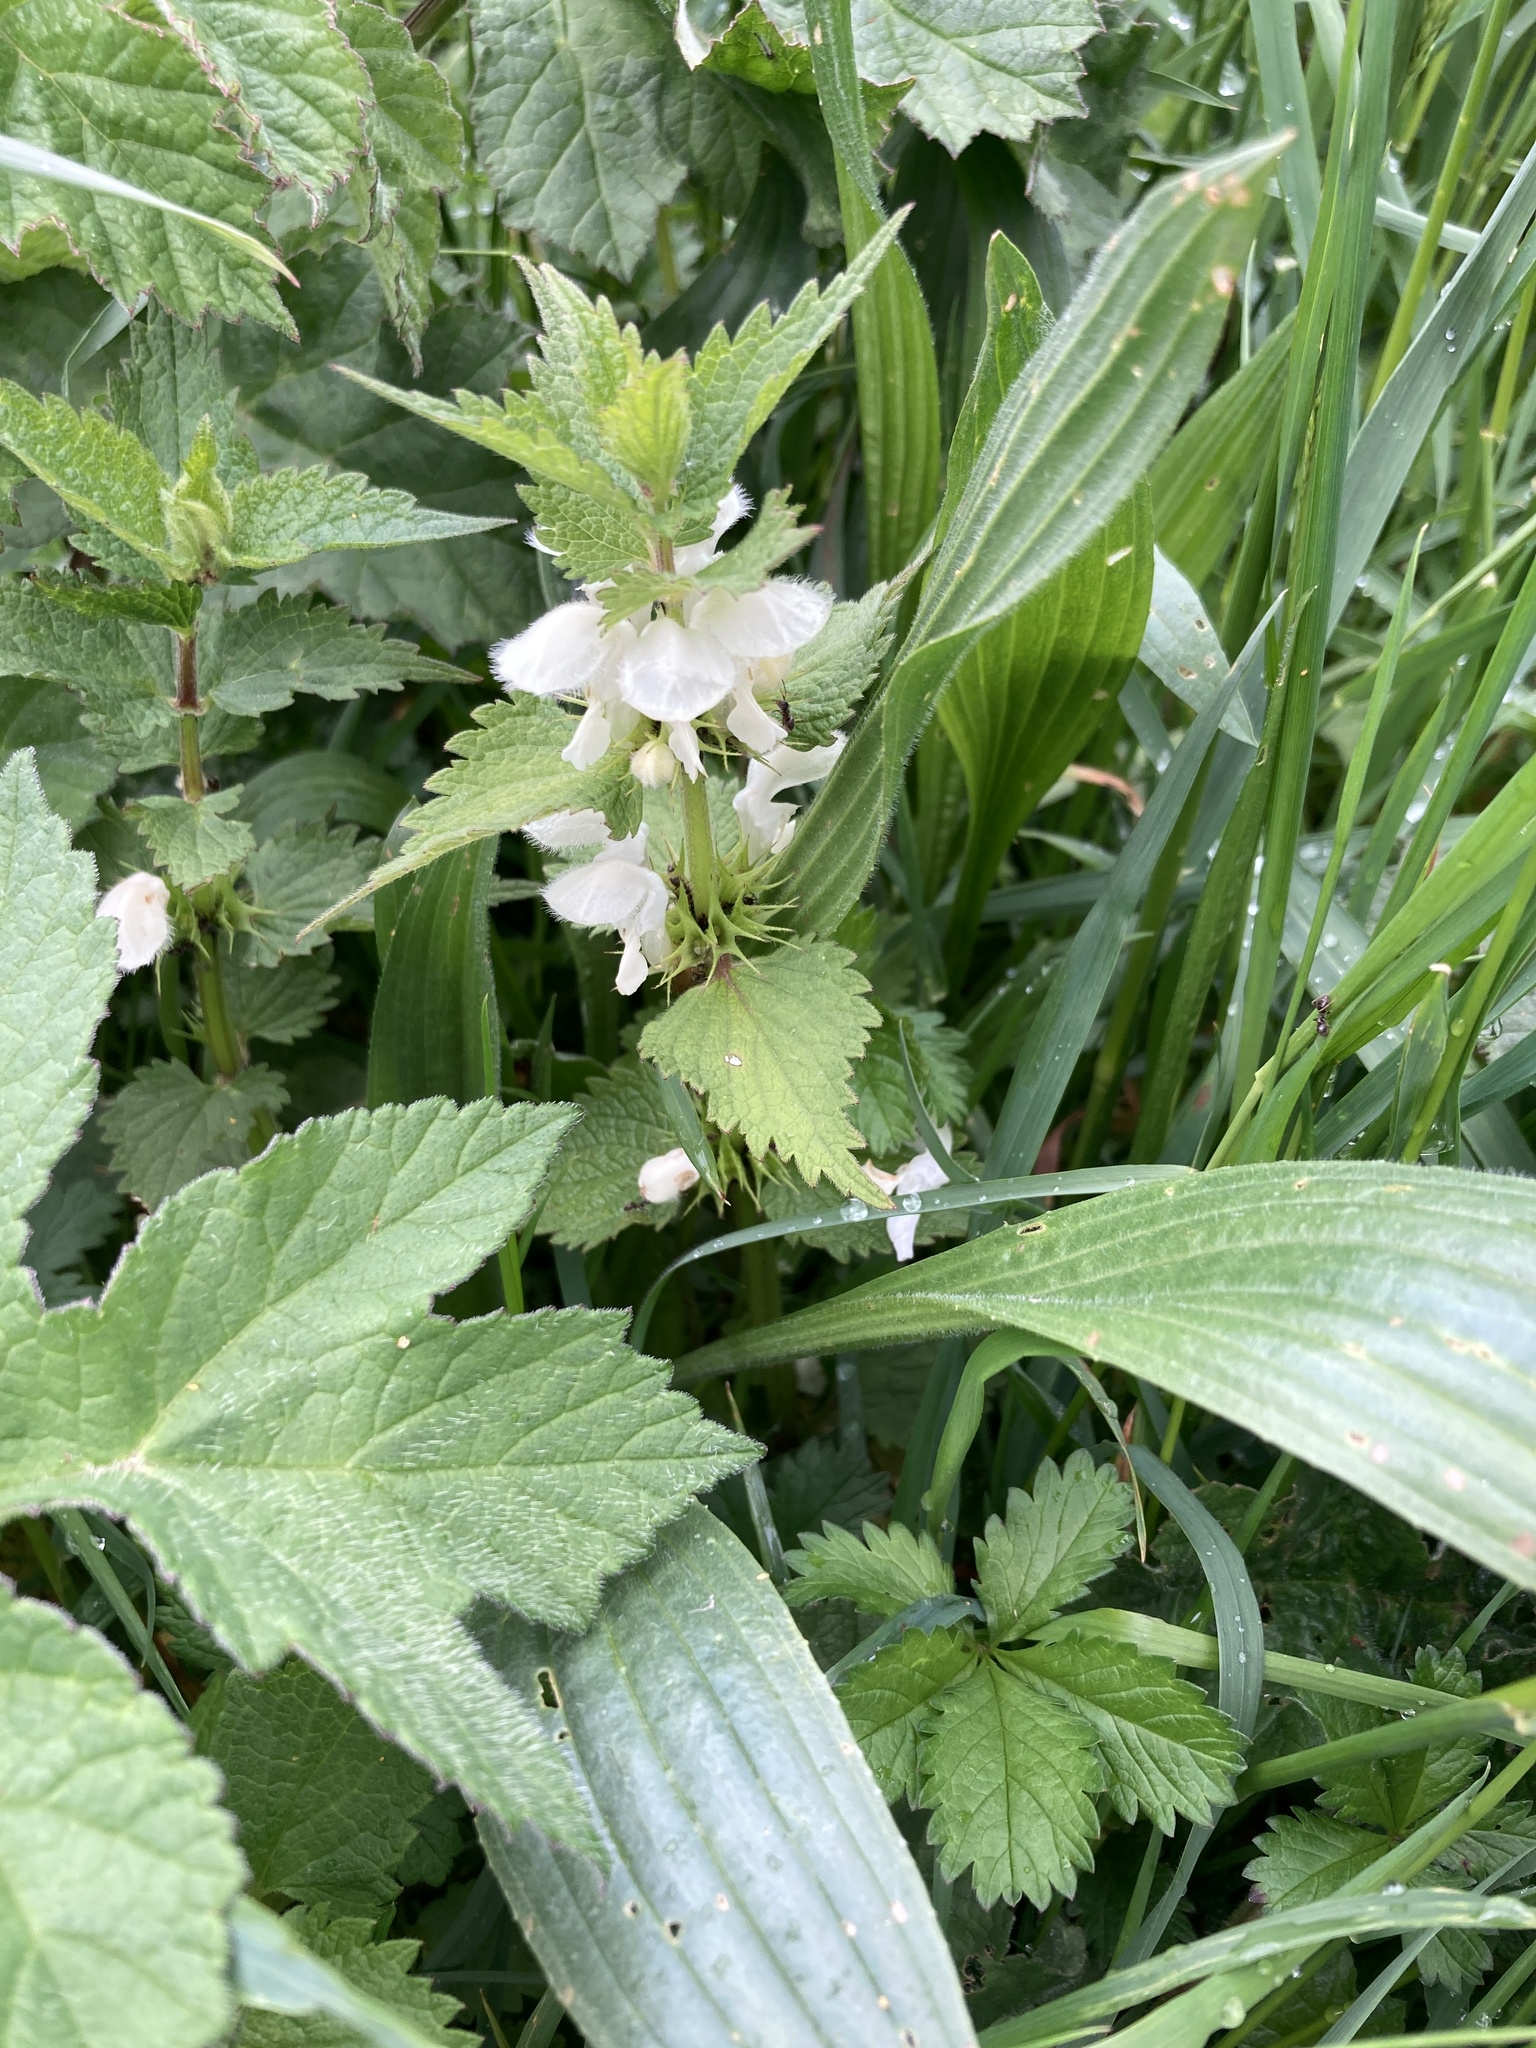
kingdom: Plantae
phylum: Tracheophyta
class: Magnoliopsida
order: Lamiales
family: Lamiaceae
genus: Lamium
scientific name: Lamium album
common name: White dead-nettle
